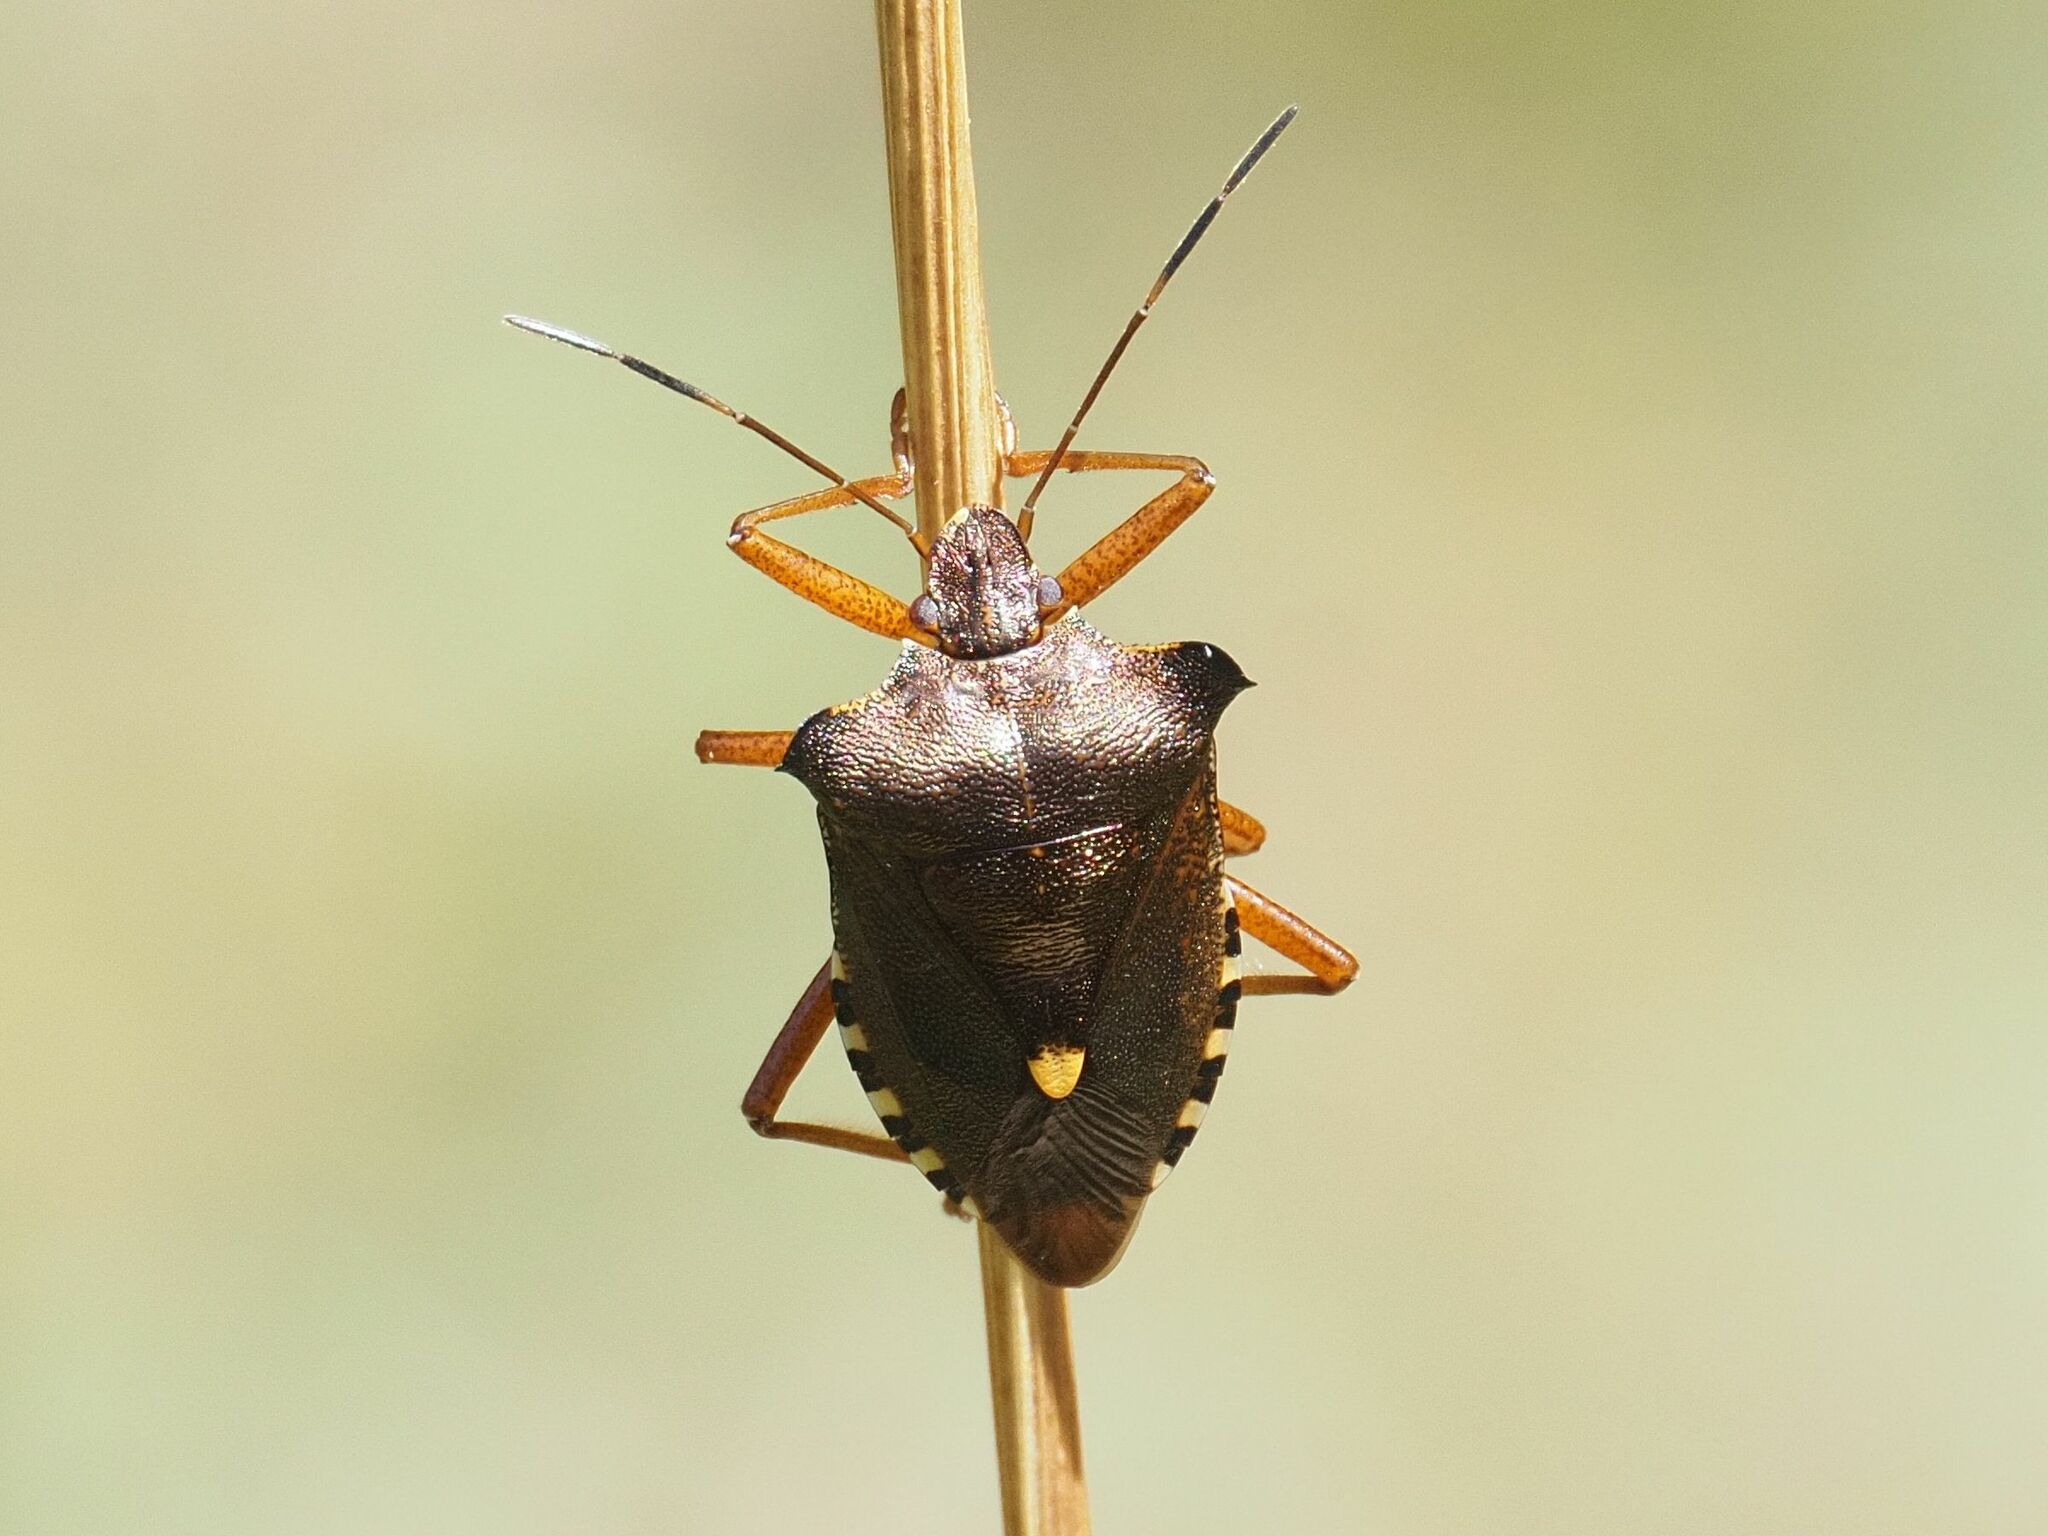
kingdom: Animalia
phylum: Arthropoda
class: Insecta
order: Hemiptera
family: Pentatomidae
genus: Pentatoma
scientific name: Pentatoma rufipes
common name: Forest bug
